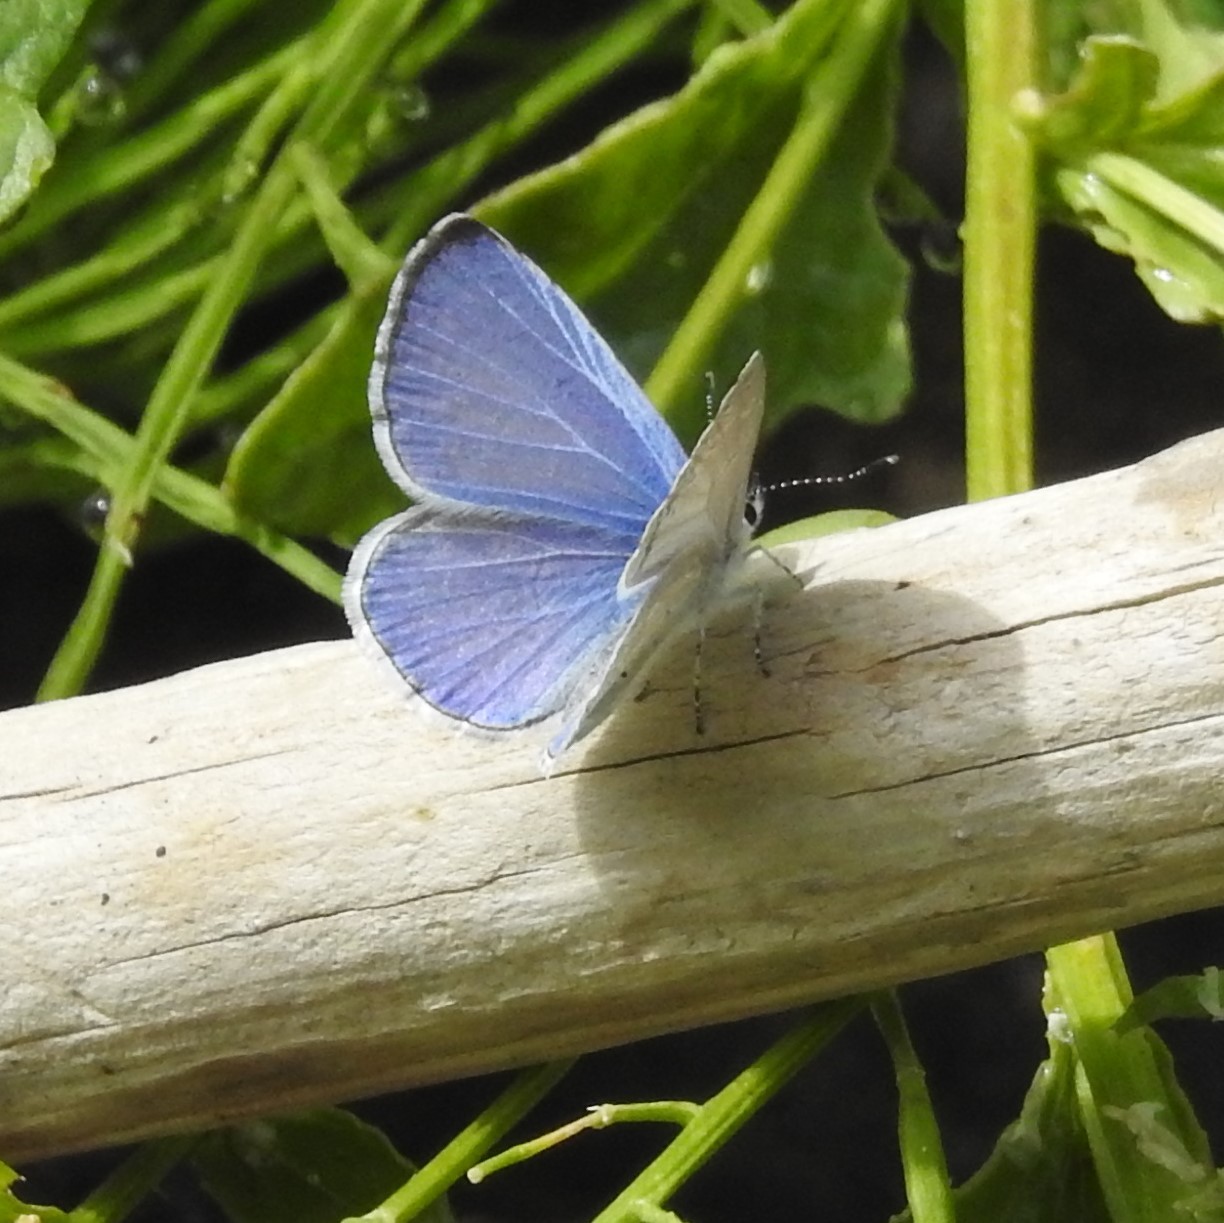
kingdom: Animalia
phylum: Arthropoda
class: Insecta
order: Lepidoptera
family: Lycaenidae
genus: Celastrina
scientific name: Celastrina ladon
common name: Spring azure
